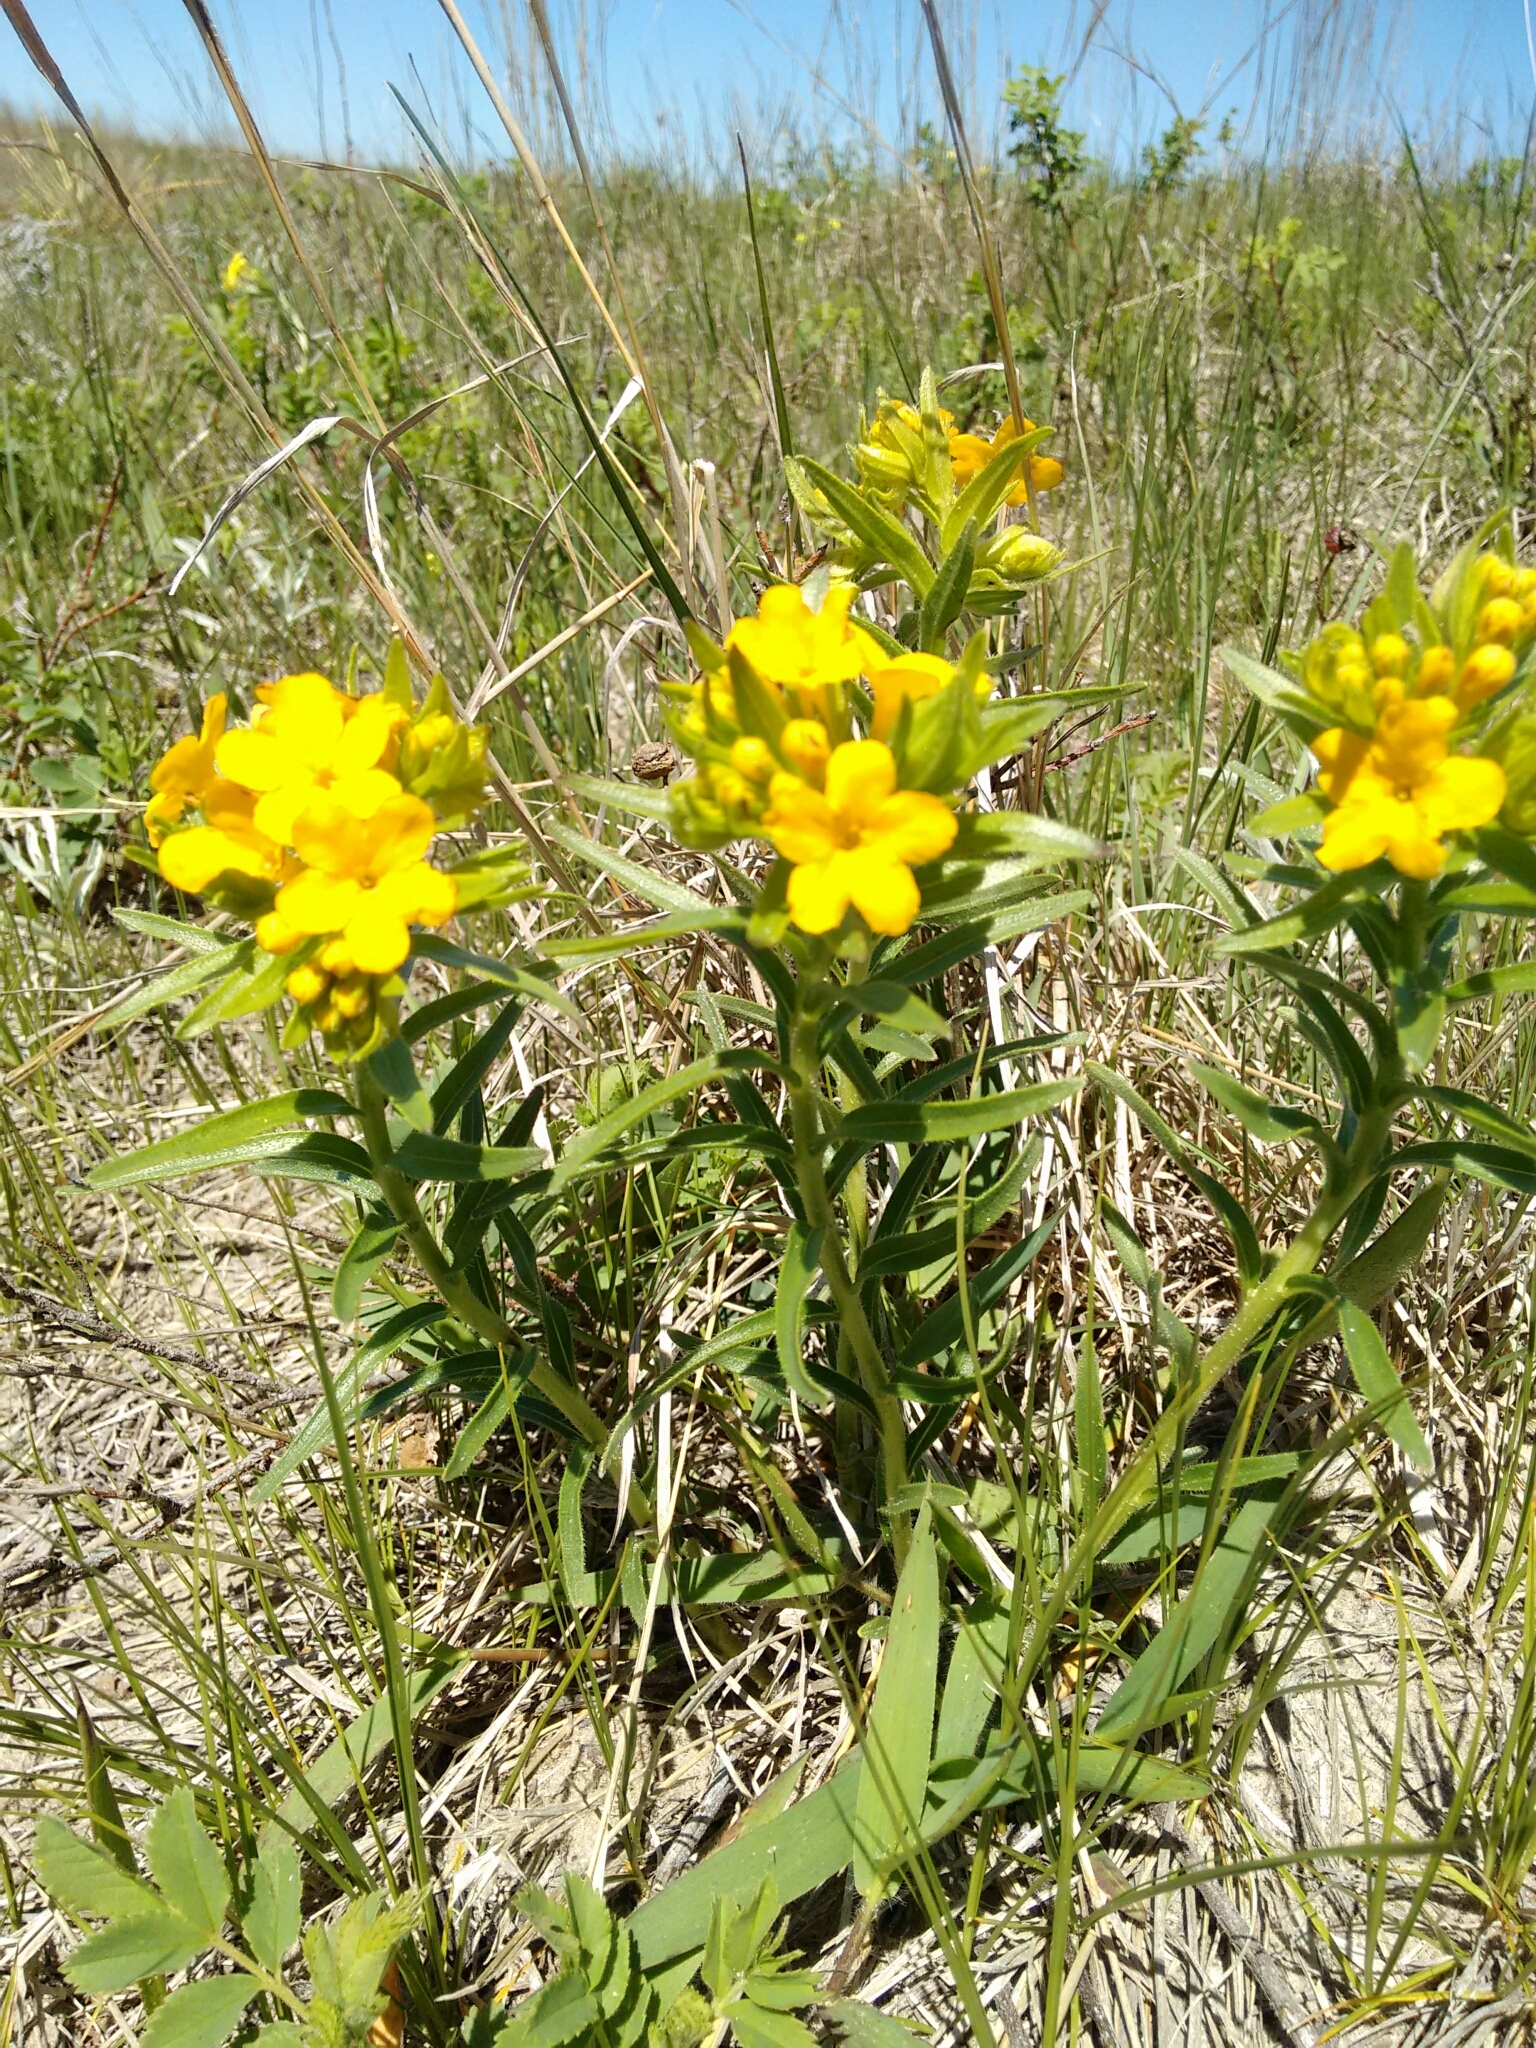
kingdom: Plantae
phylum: Tracheophyta
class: Magnoliopsida
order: Boraginales
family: Boraginaceae
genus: Lithospermum
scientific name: Lithospermum caroliniense
